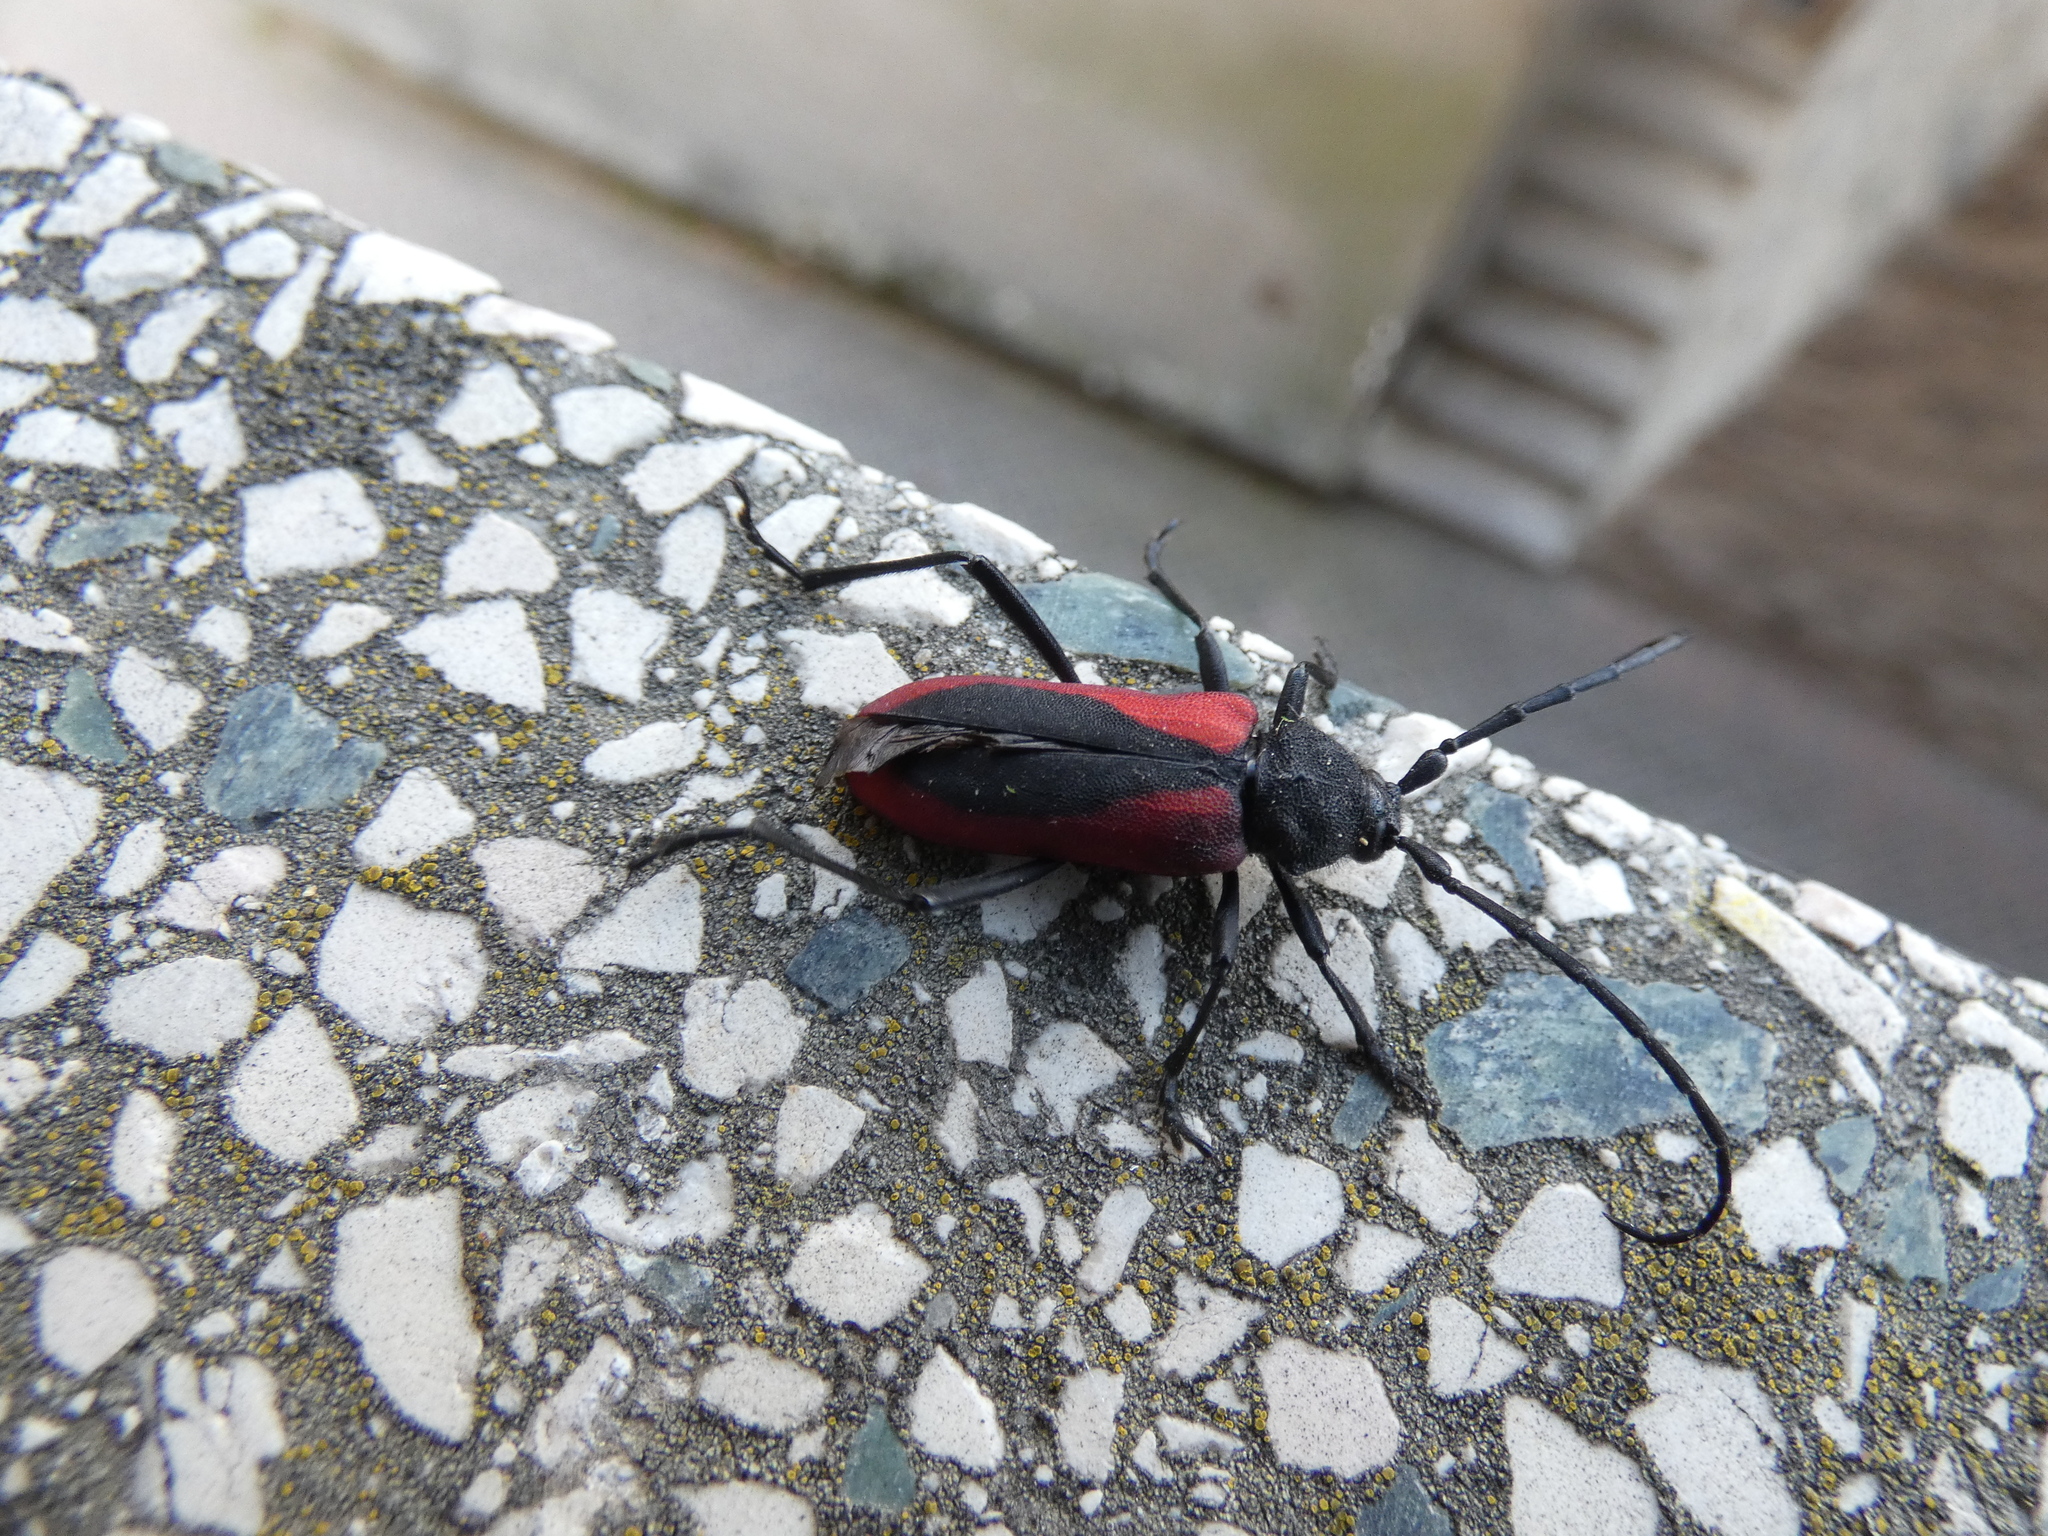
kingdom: Animalia
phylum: Arthropoda
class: Insecta
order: Coleoptera
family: Cerambycidae
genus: Purpuricenus
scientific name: Purpuricenus kaehleri
